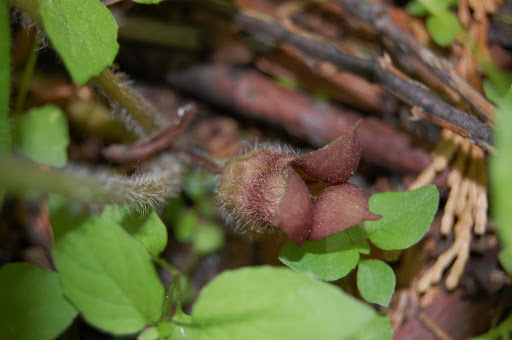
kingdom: Plantae
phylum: Tracheophyta
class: Magnoliopsida
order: Piperales
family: Aristolochiaceae
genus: Asarum
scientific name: Asarum lemmonii
